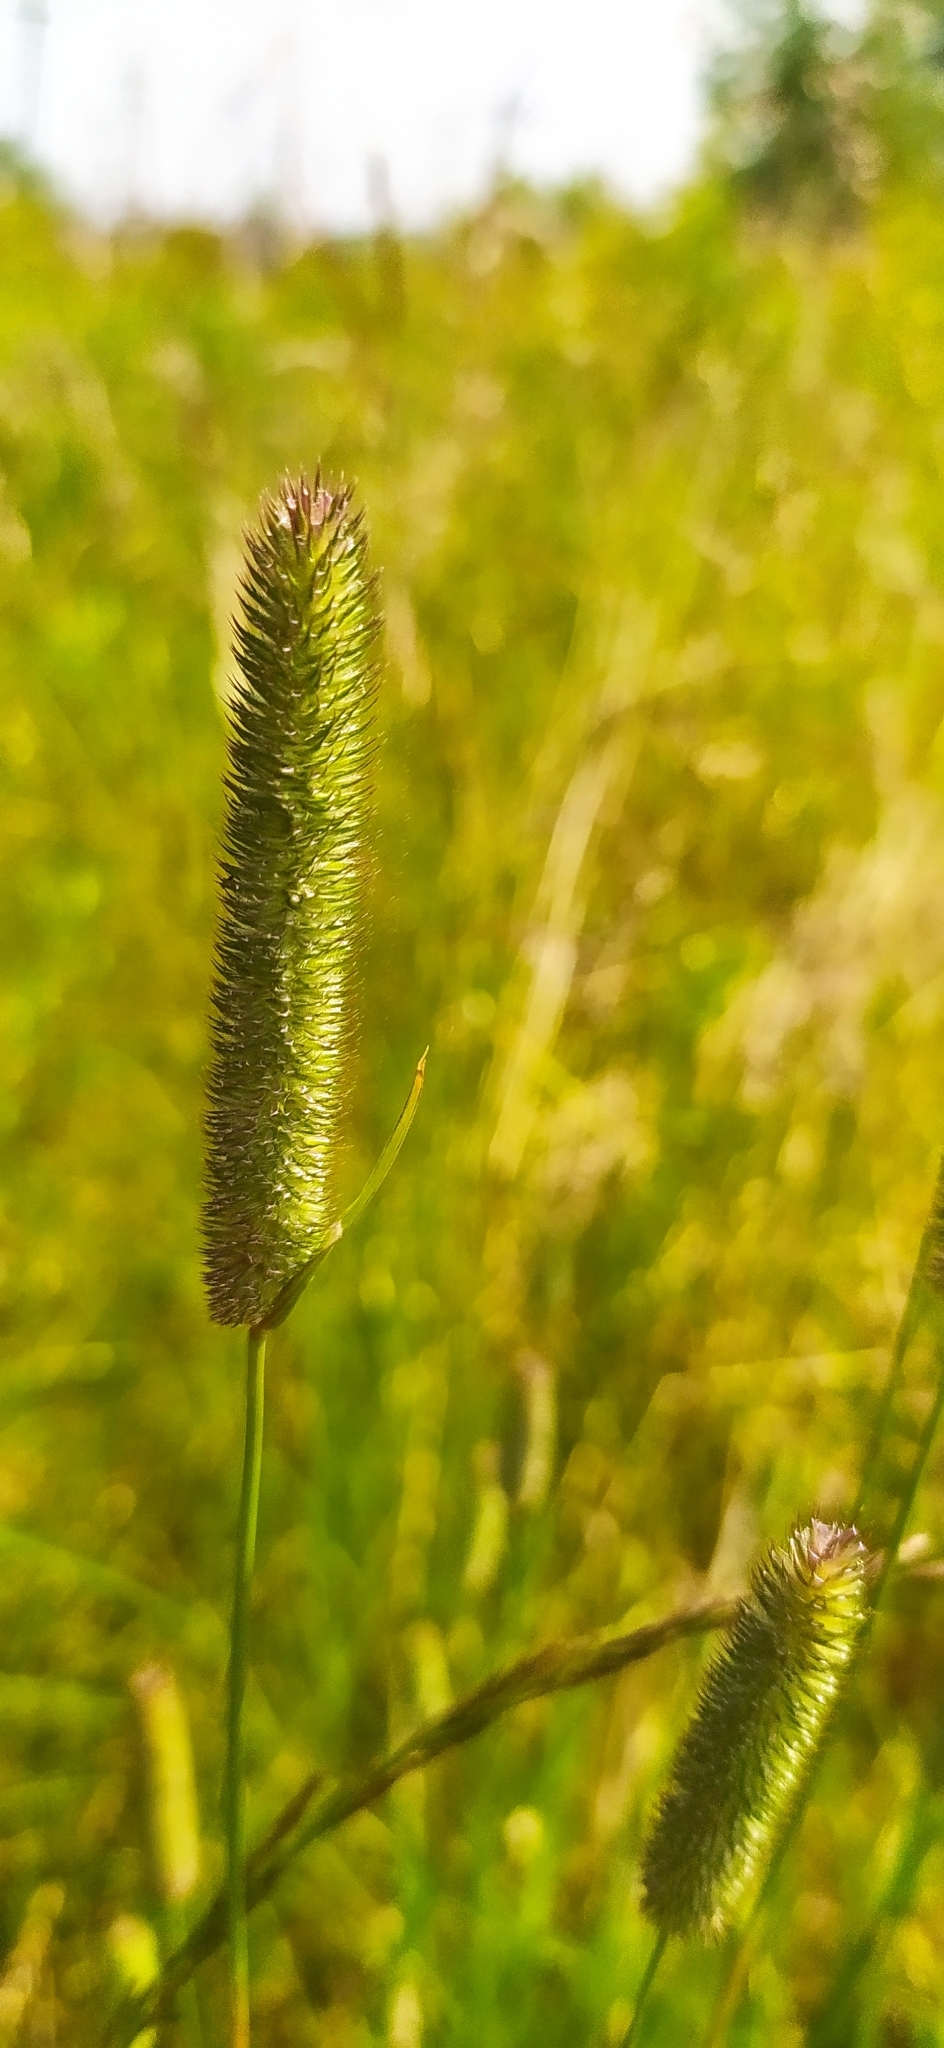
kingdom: Plantae
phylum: Tracheophyta
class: Liliopsida
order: Poales
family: Poaceae
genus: Phleum
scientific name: Phleum pratense
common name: Timothy grass
